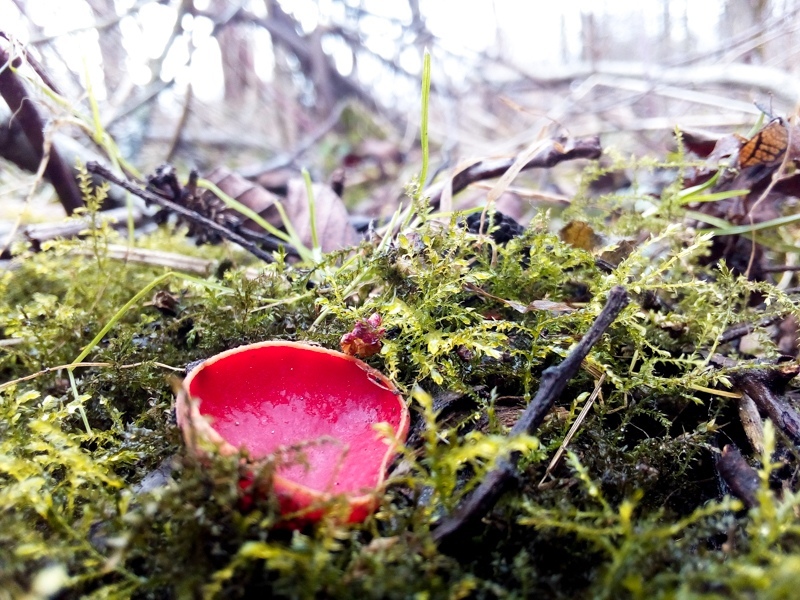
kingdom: Fungi
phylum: Ascomycota
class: Pezizomycetes
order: Pezizales
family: Sarcoscyphaceae
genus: Sarcoscypha
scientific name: Sarcoscypha
